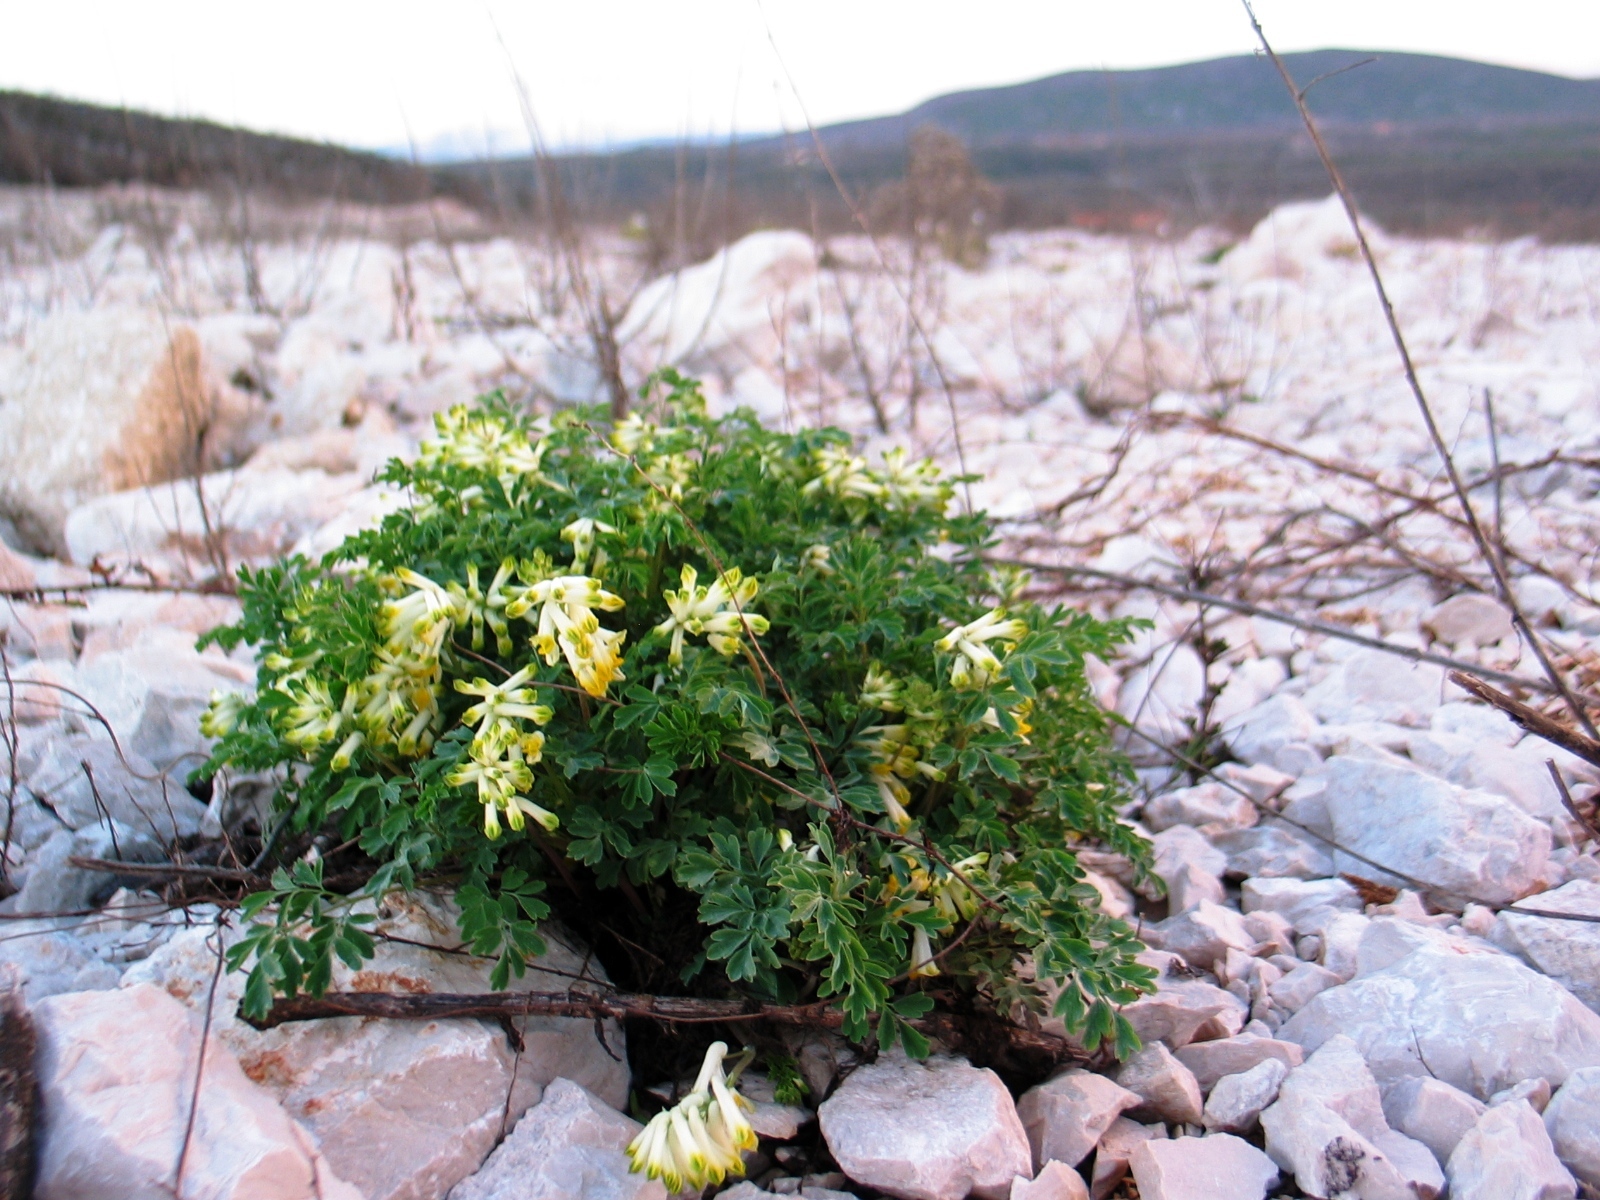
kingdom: Plantae
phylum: Tracheophyta
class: Magnoliopsida
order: Ranunculales
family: Papaveraceae
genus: Pseudofumaria
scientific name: Pseudofumaria alba
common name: Pale corydalis
